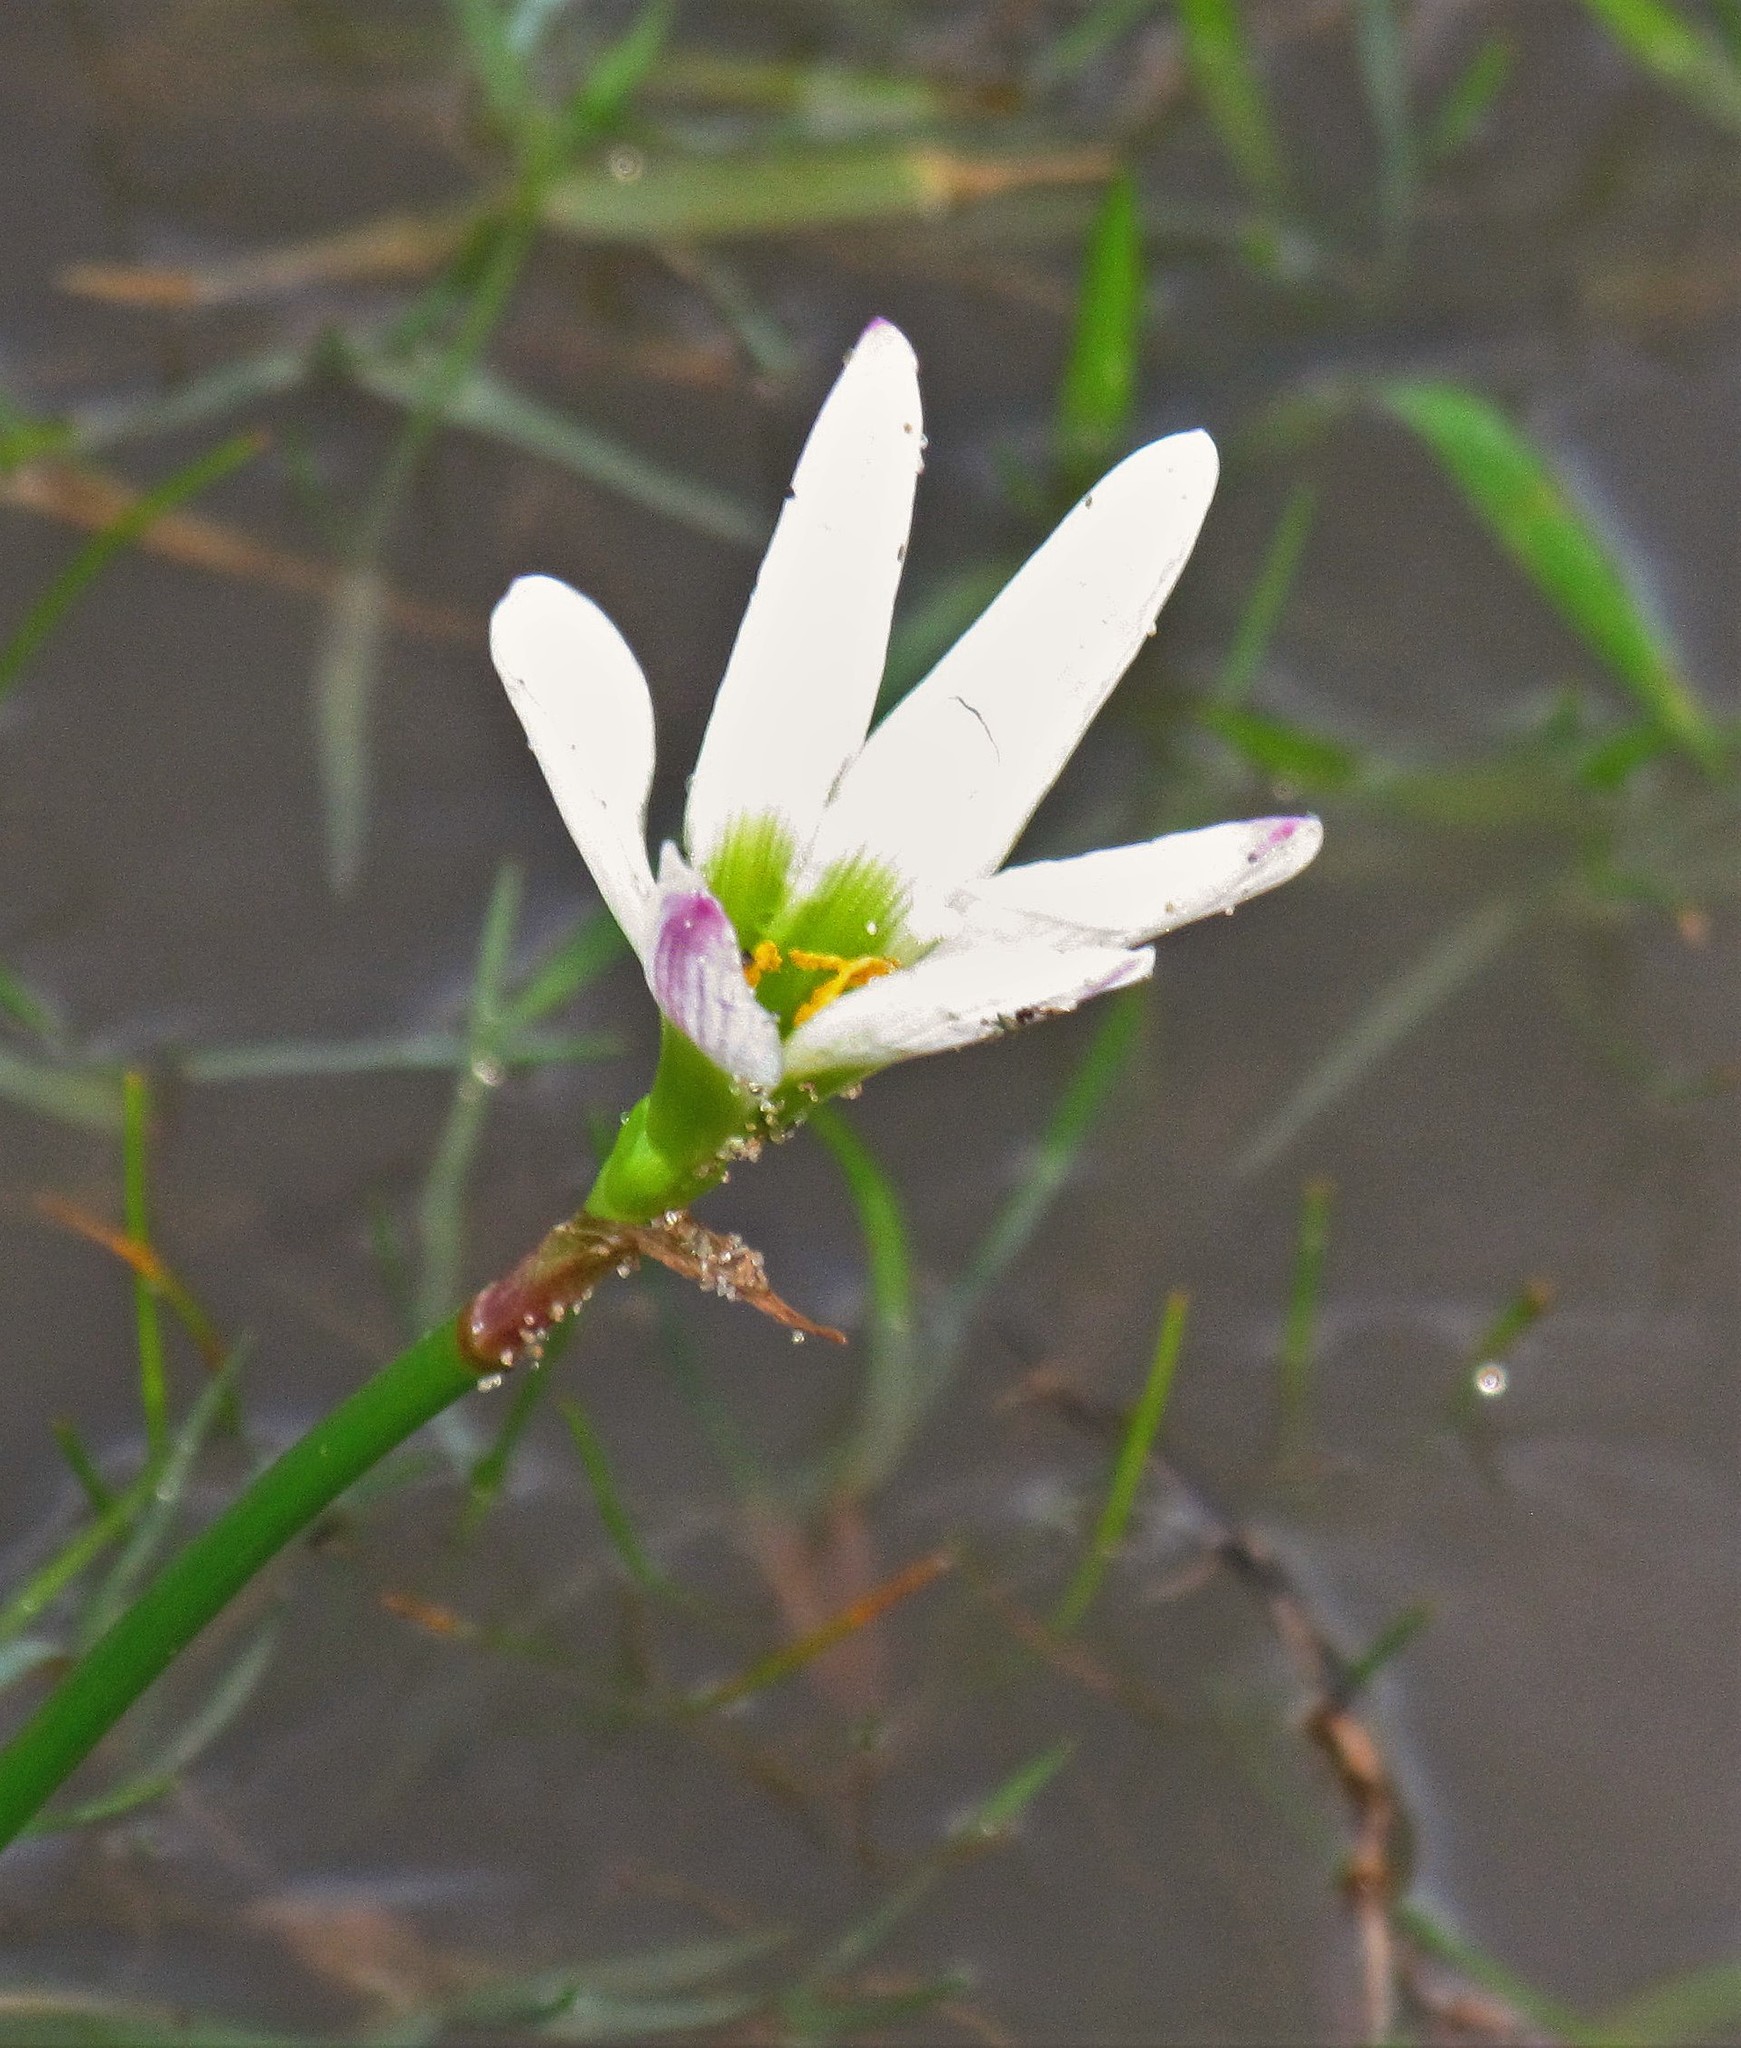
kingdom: Plantae
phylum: Tracheophyta
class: Liliopsida
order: Asparagales
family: Amaryllidaceae
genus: Zephyranthes
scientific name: Zephyranthes minima
